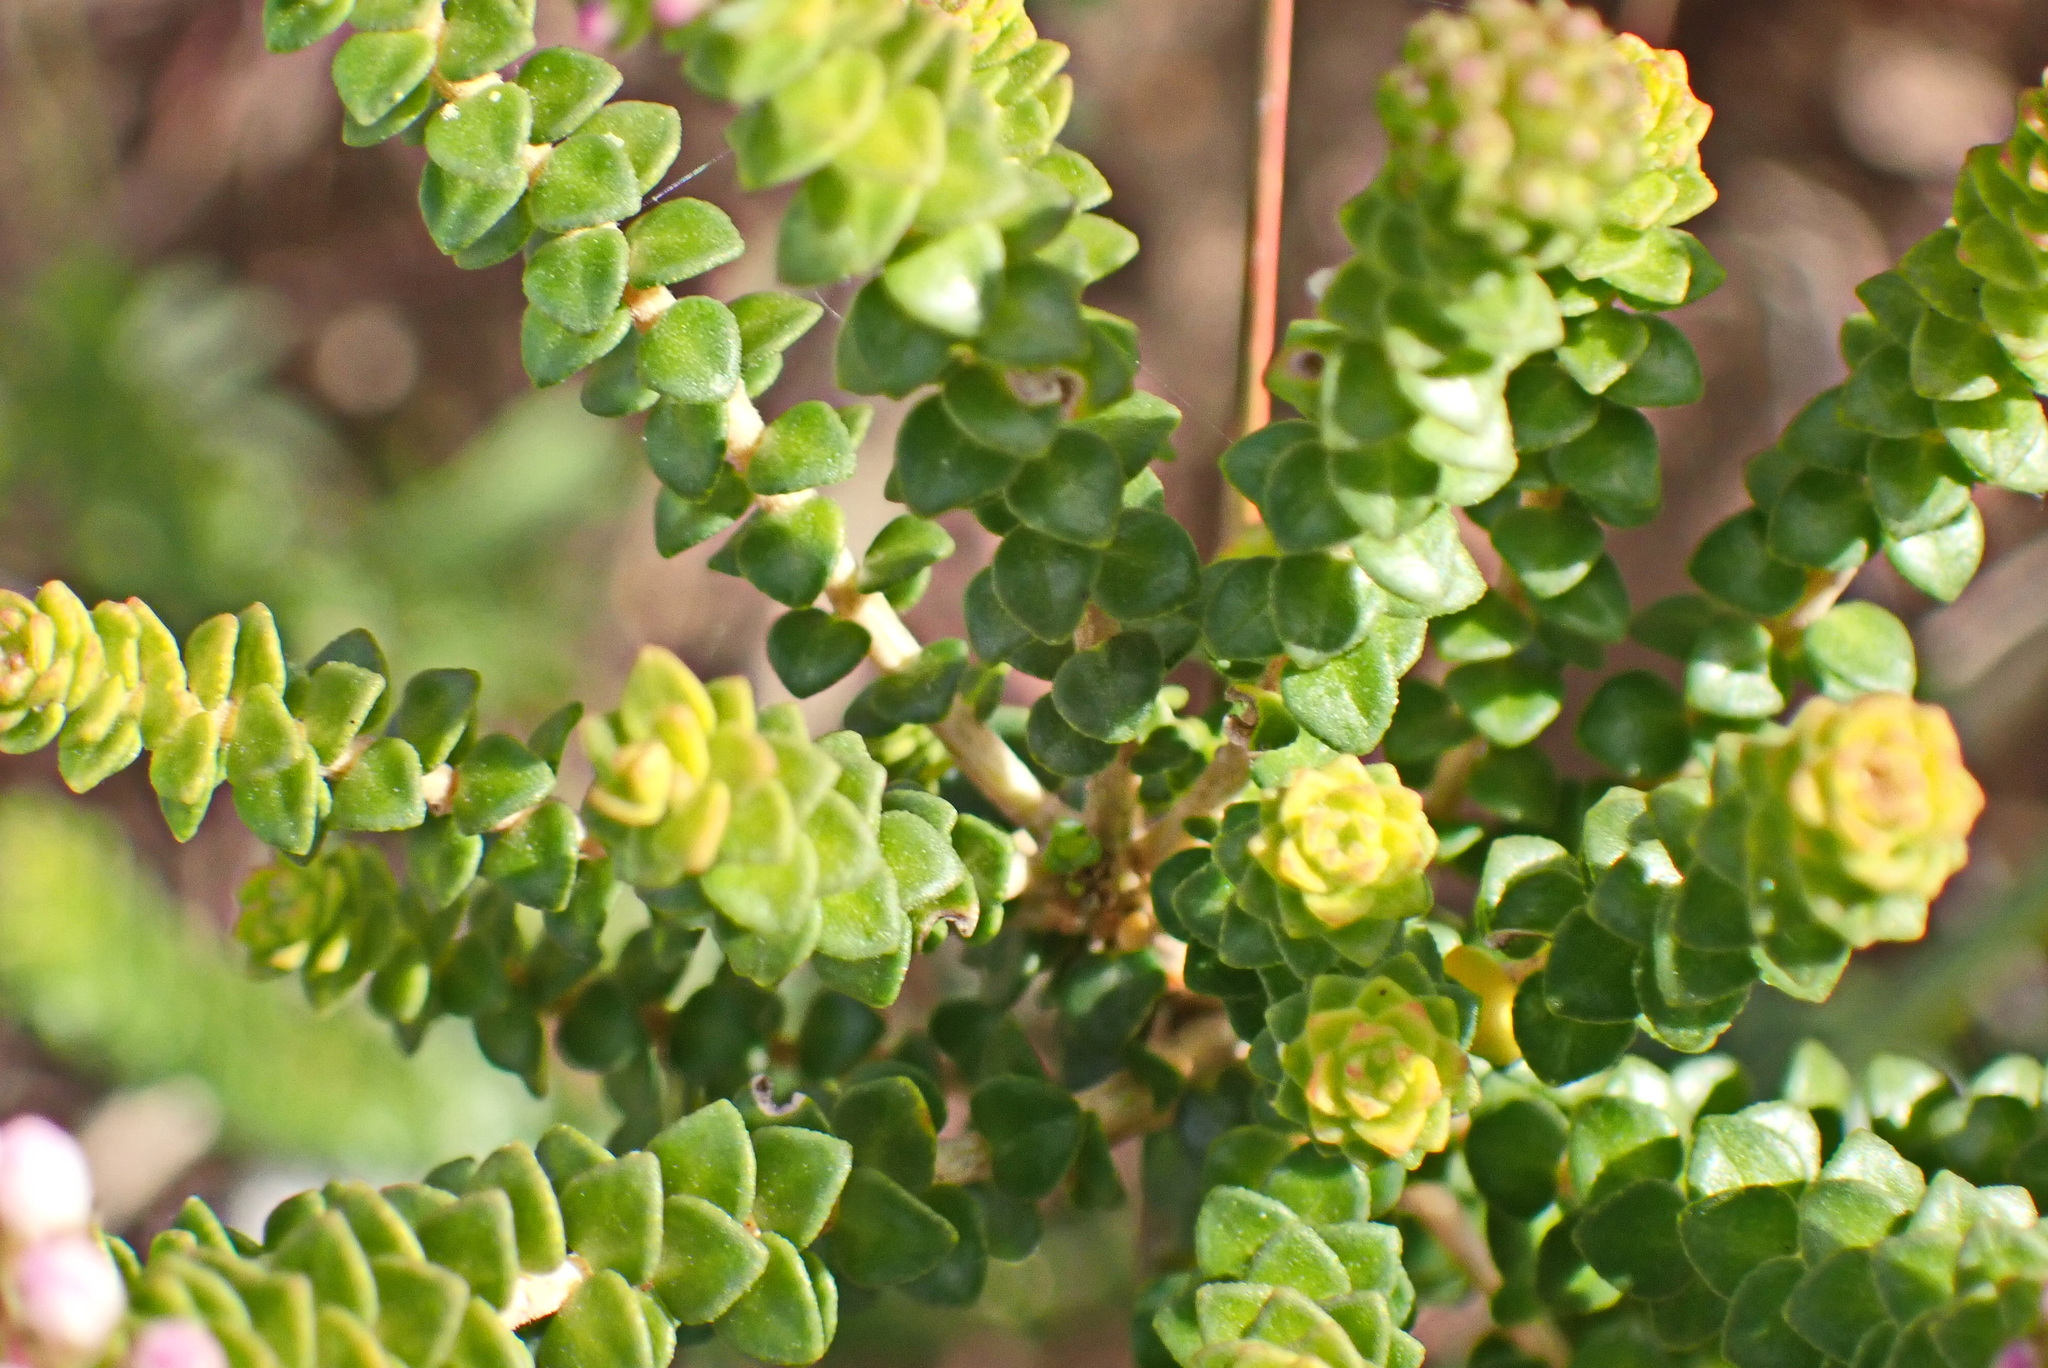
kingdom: Plantae
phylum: Tracheophyta
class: Magnoliopsida
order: Sapindales
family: Rutaceae
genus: Agathosma
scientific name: Agathosma muirii
